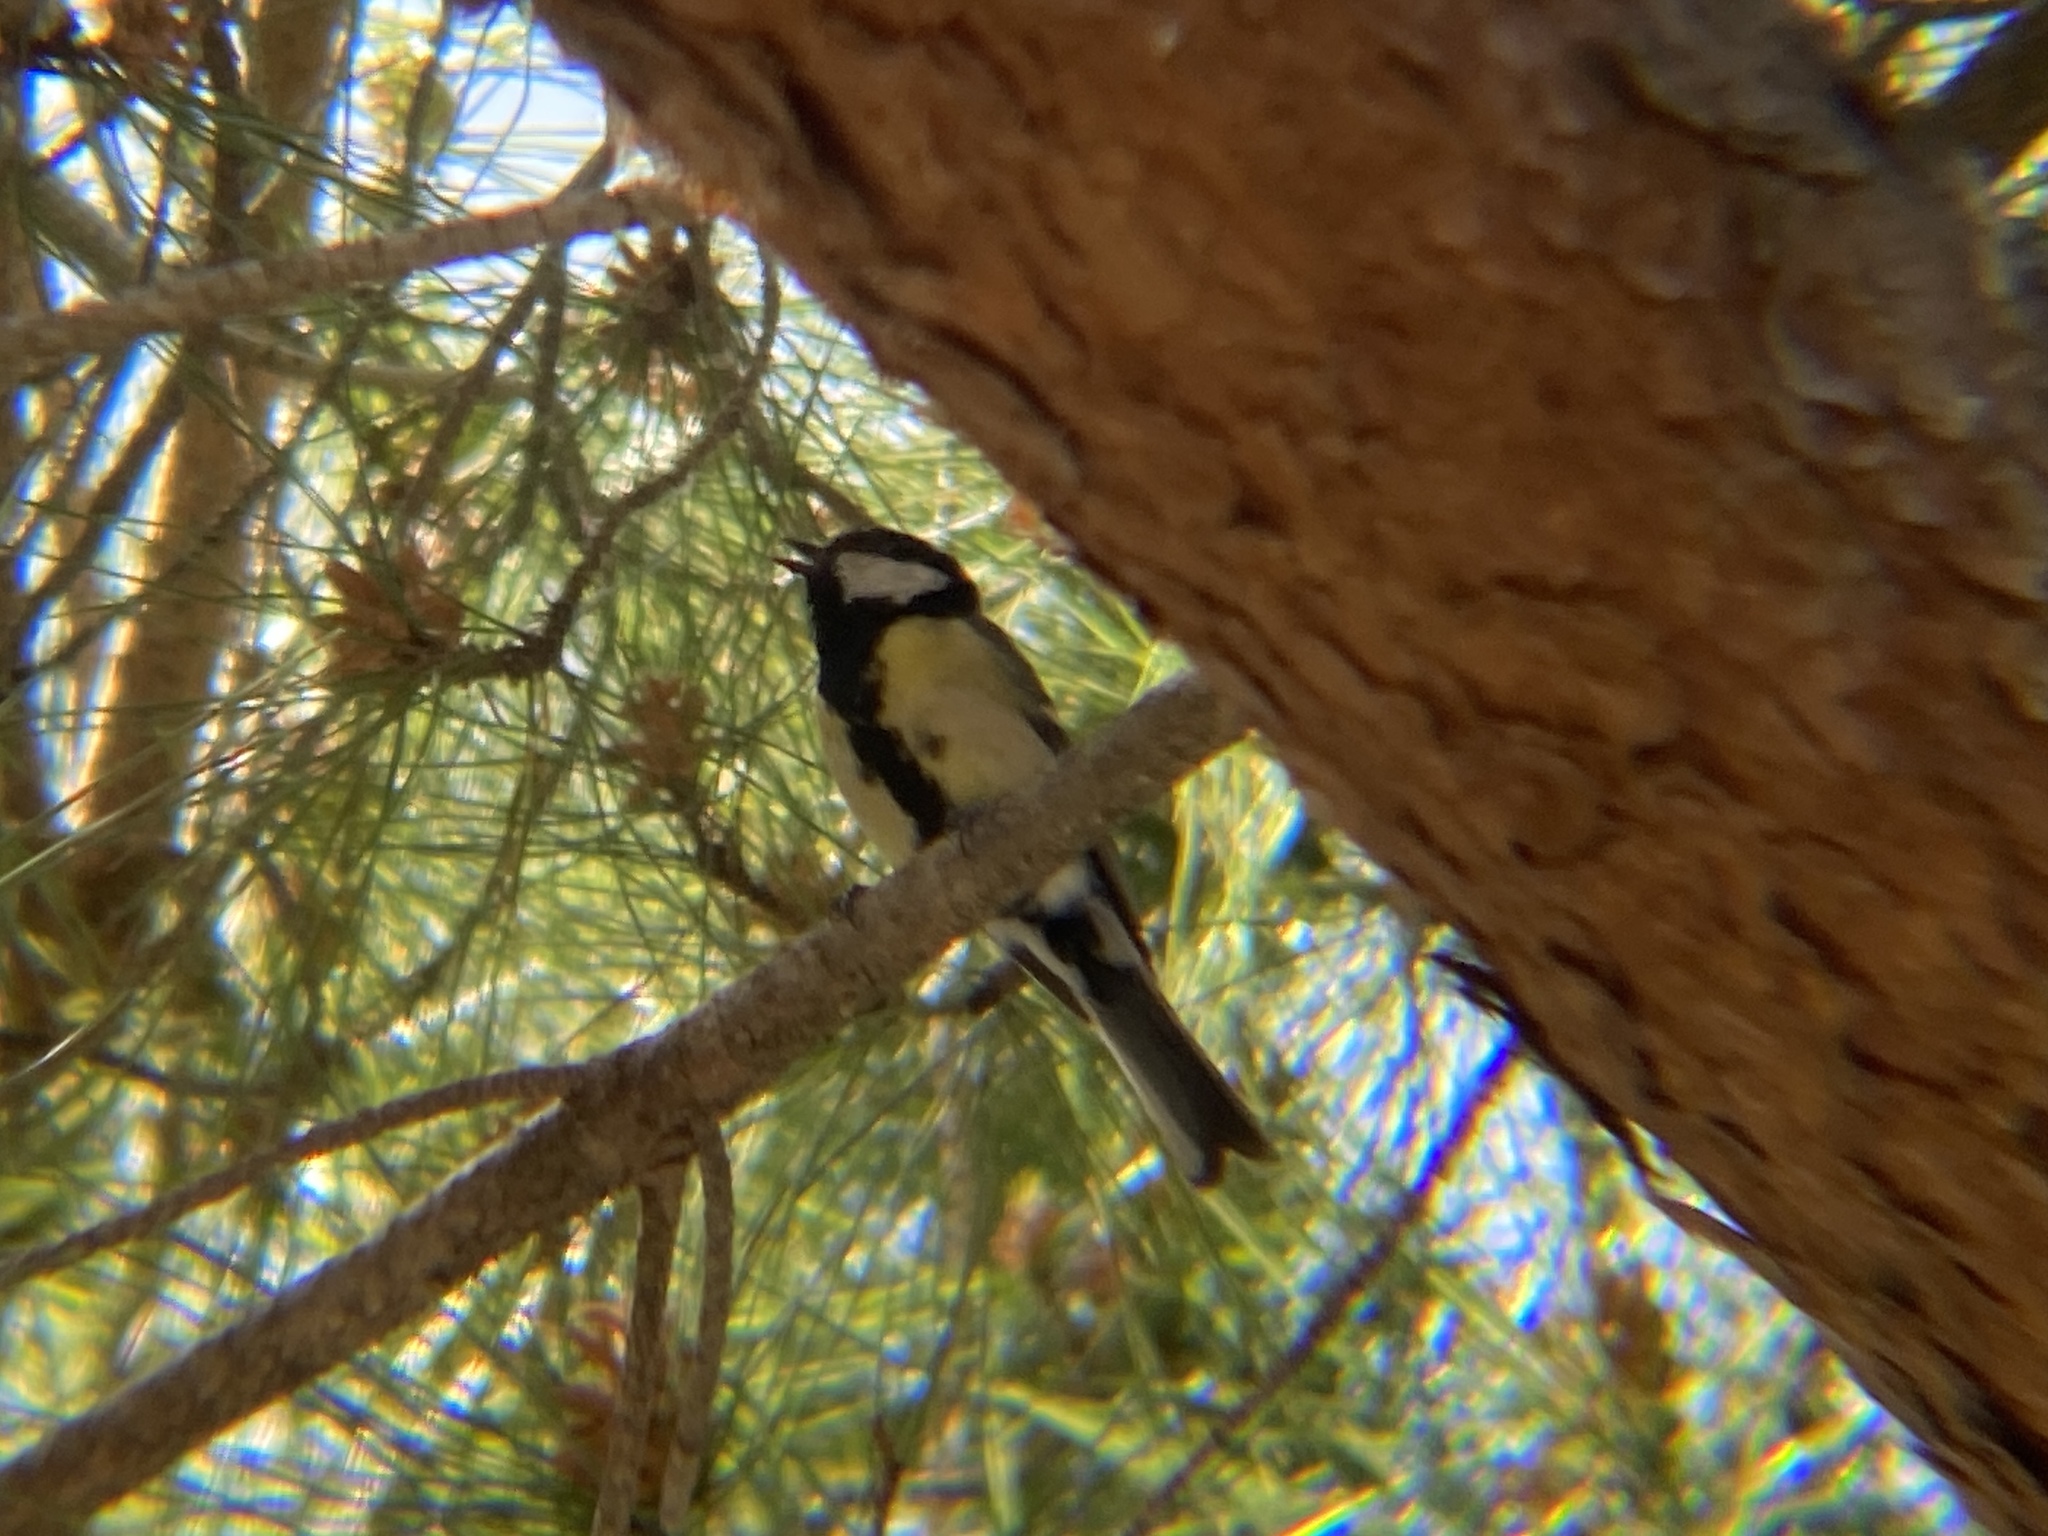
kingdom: Animalia
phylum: Chordata
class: Aves
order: Passeriformes
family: Paridae
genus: Parus
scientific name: Parus major
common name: Great tit
